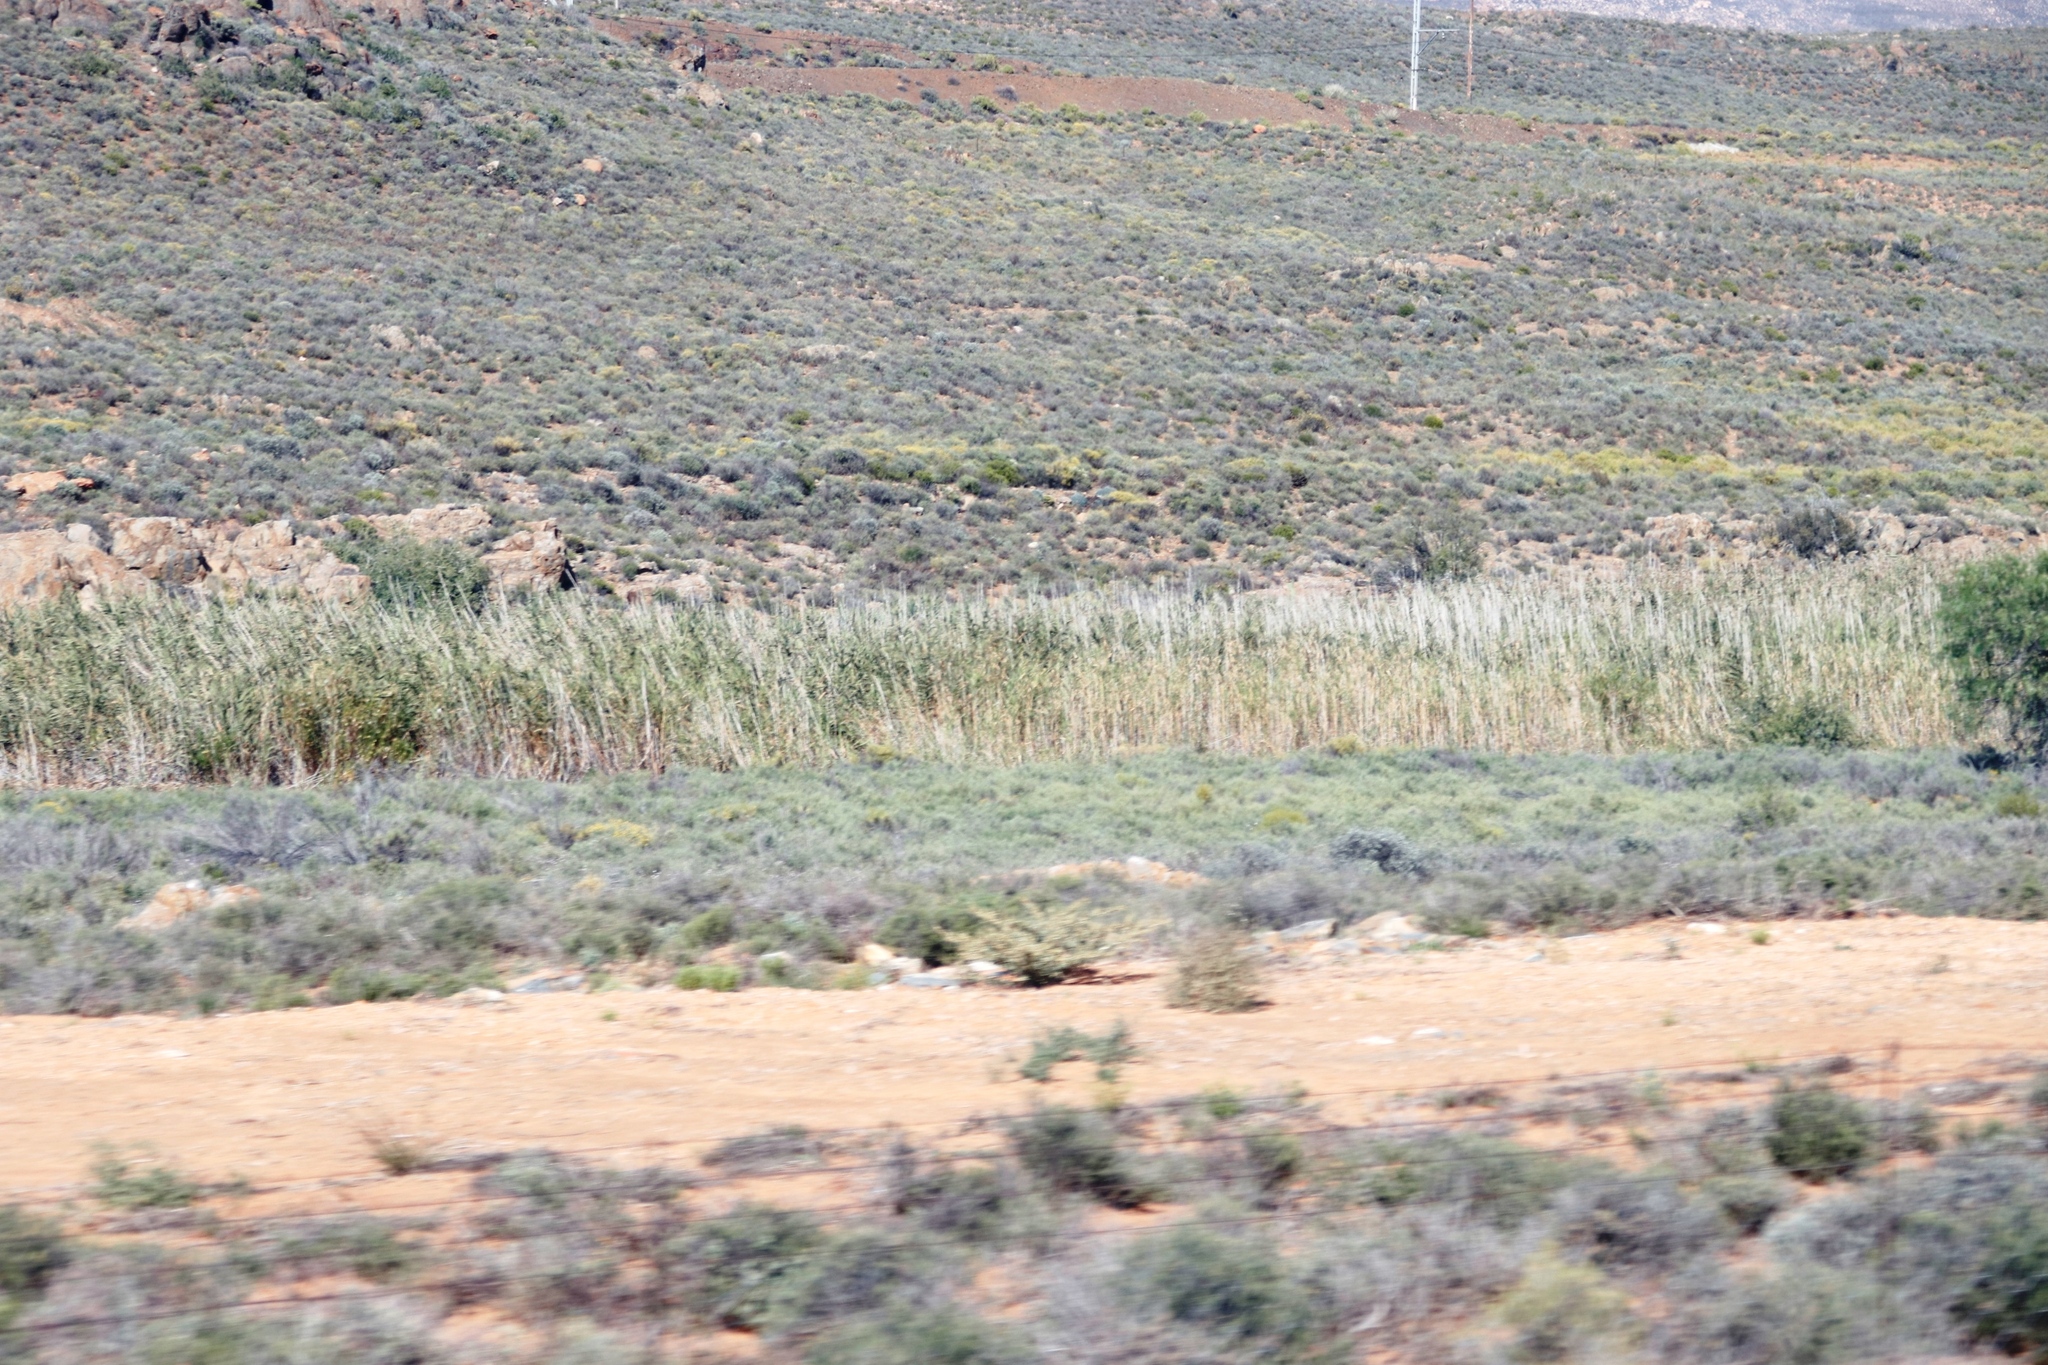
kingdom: Plantae
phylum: Tracheophyta
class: Liliopsida
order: Poales
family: Poaceae
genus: Phragmites
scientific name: Phragmites australis
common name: Common reed
